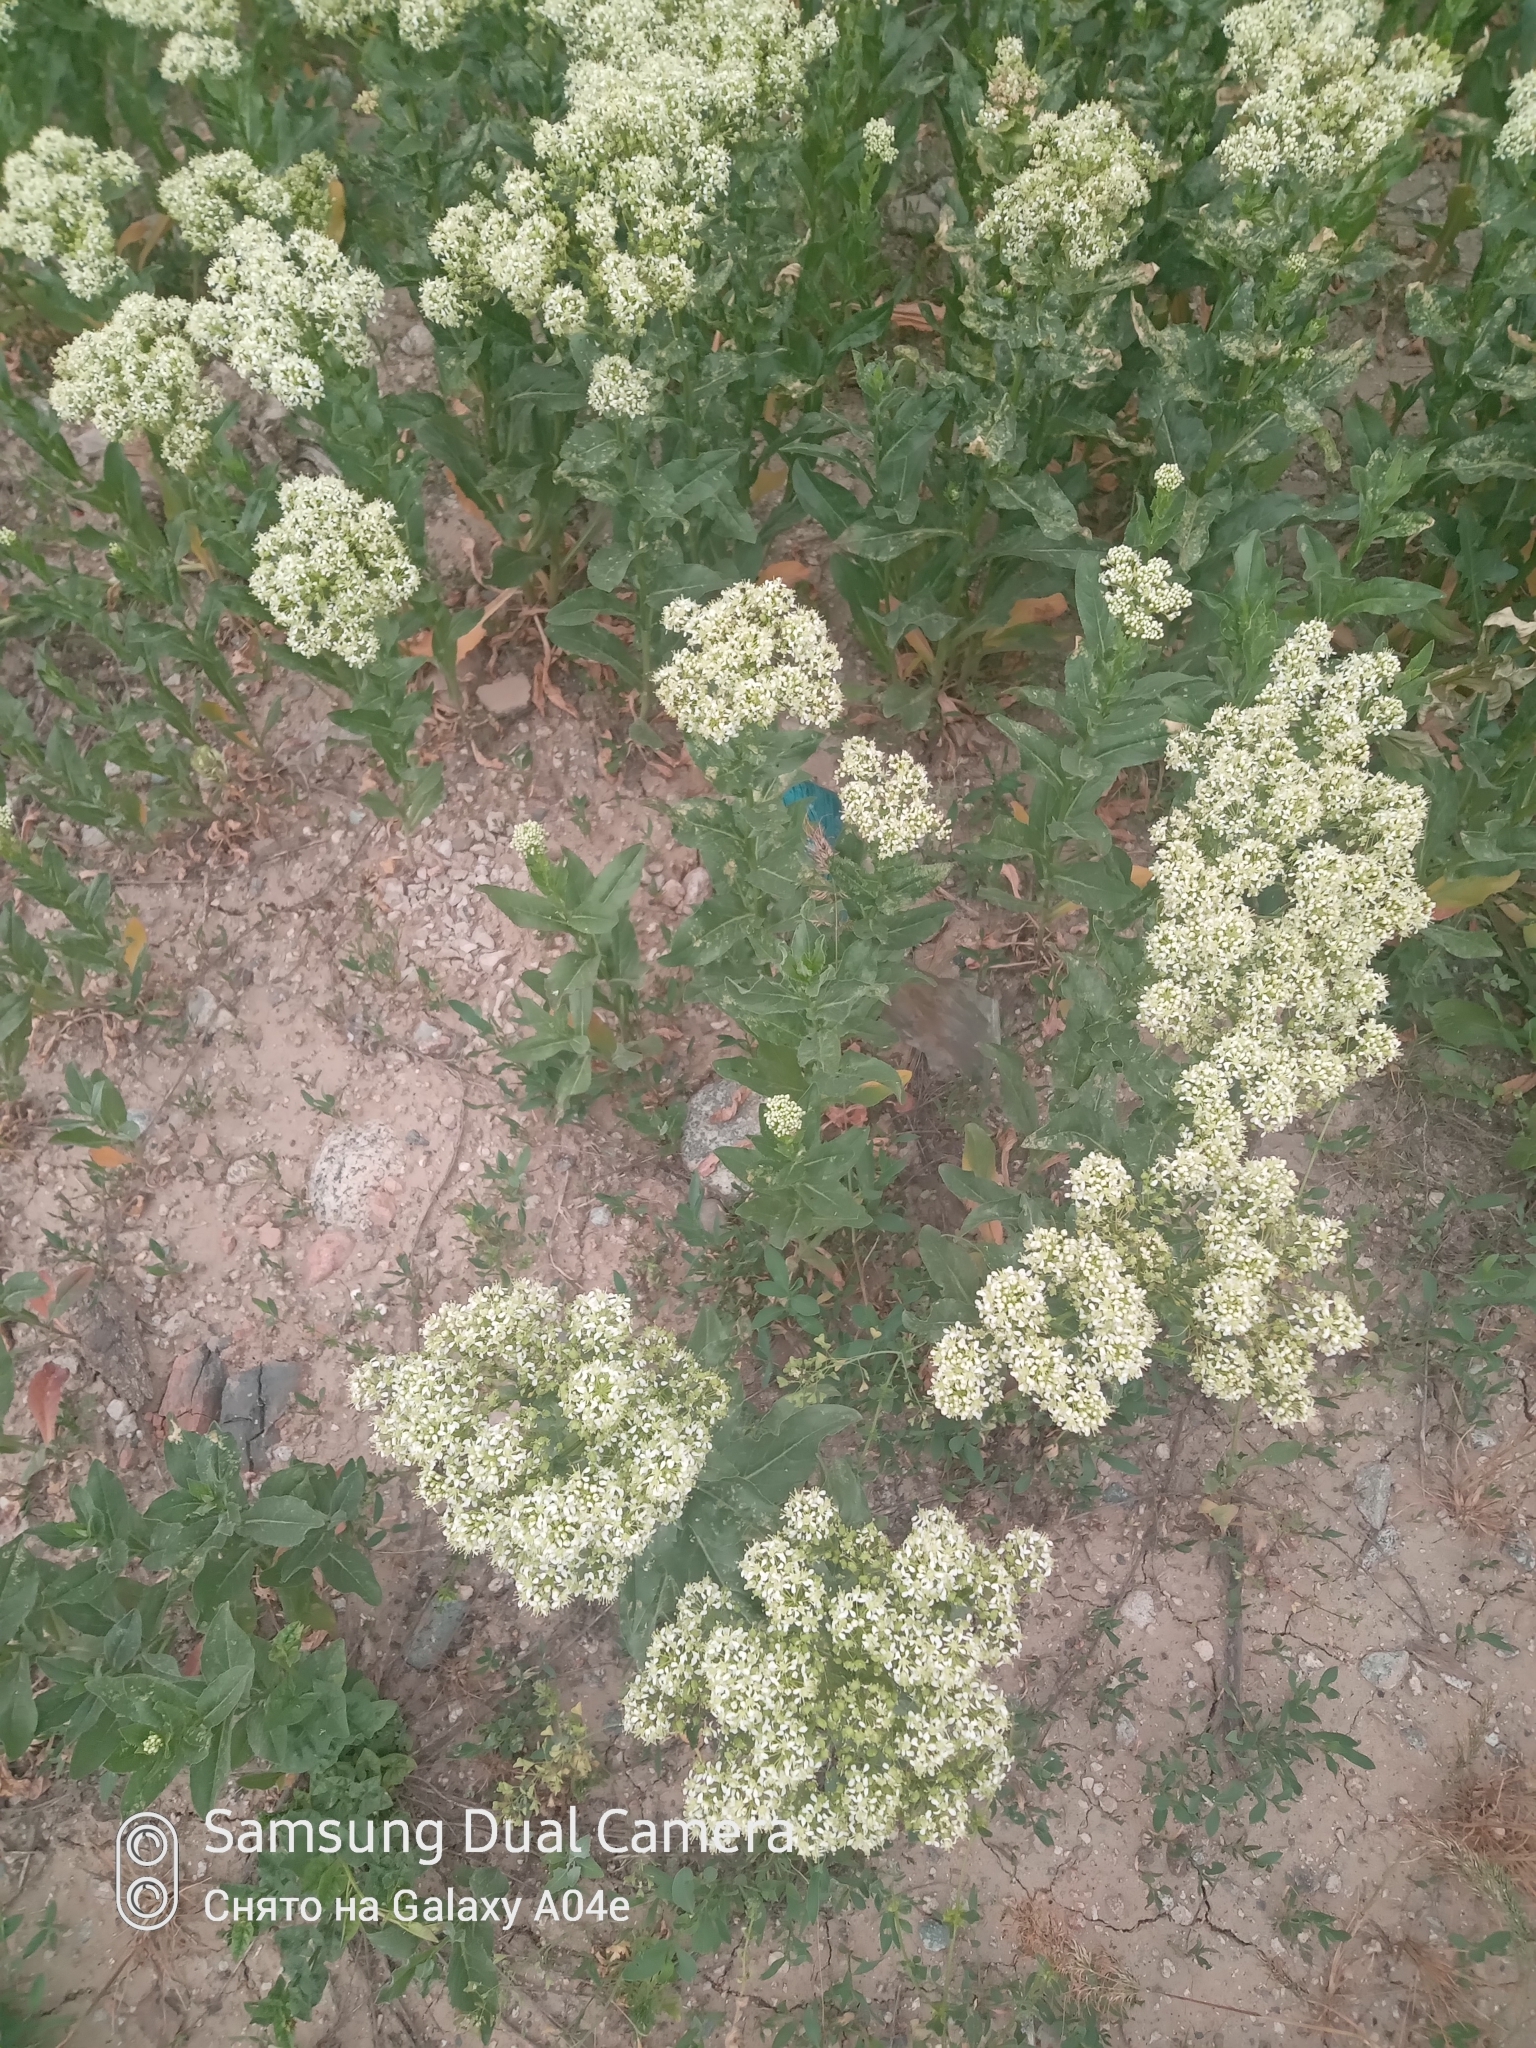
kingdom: Plantae
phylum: Tracheophyta
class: Magnoliopsida
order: Brassicales
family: Brassicaceae
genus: Lepidium
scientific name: Lepidium draba
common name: Hoary cress
